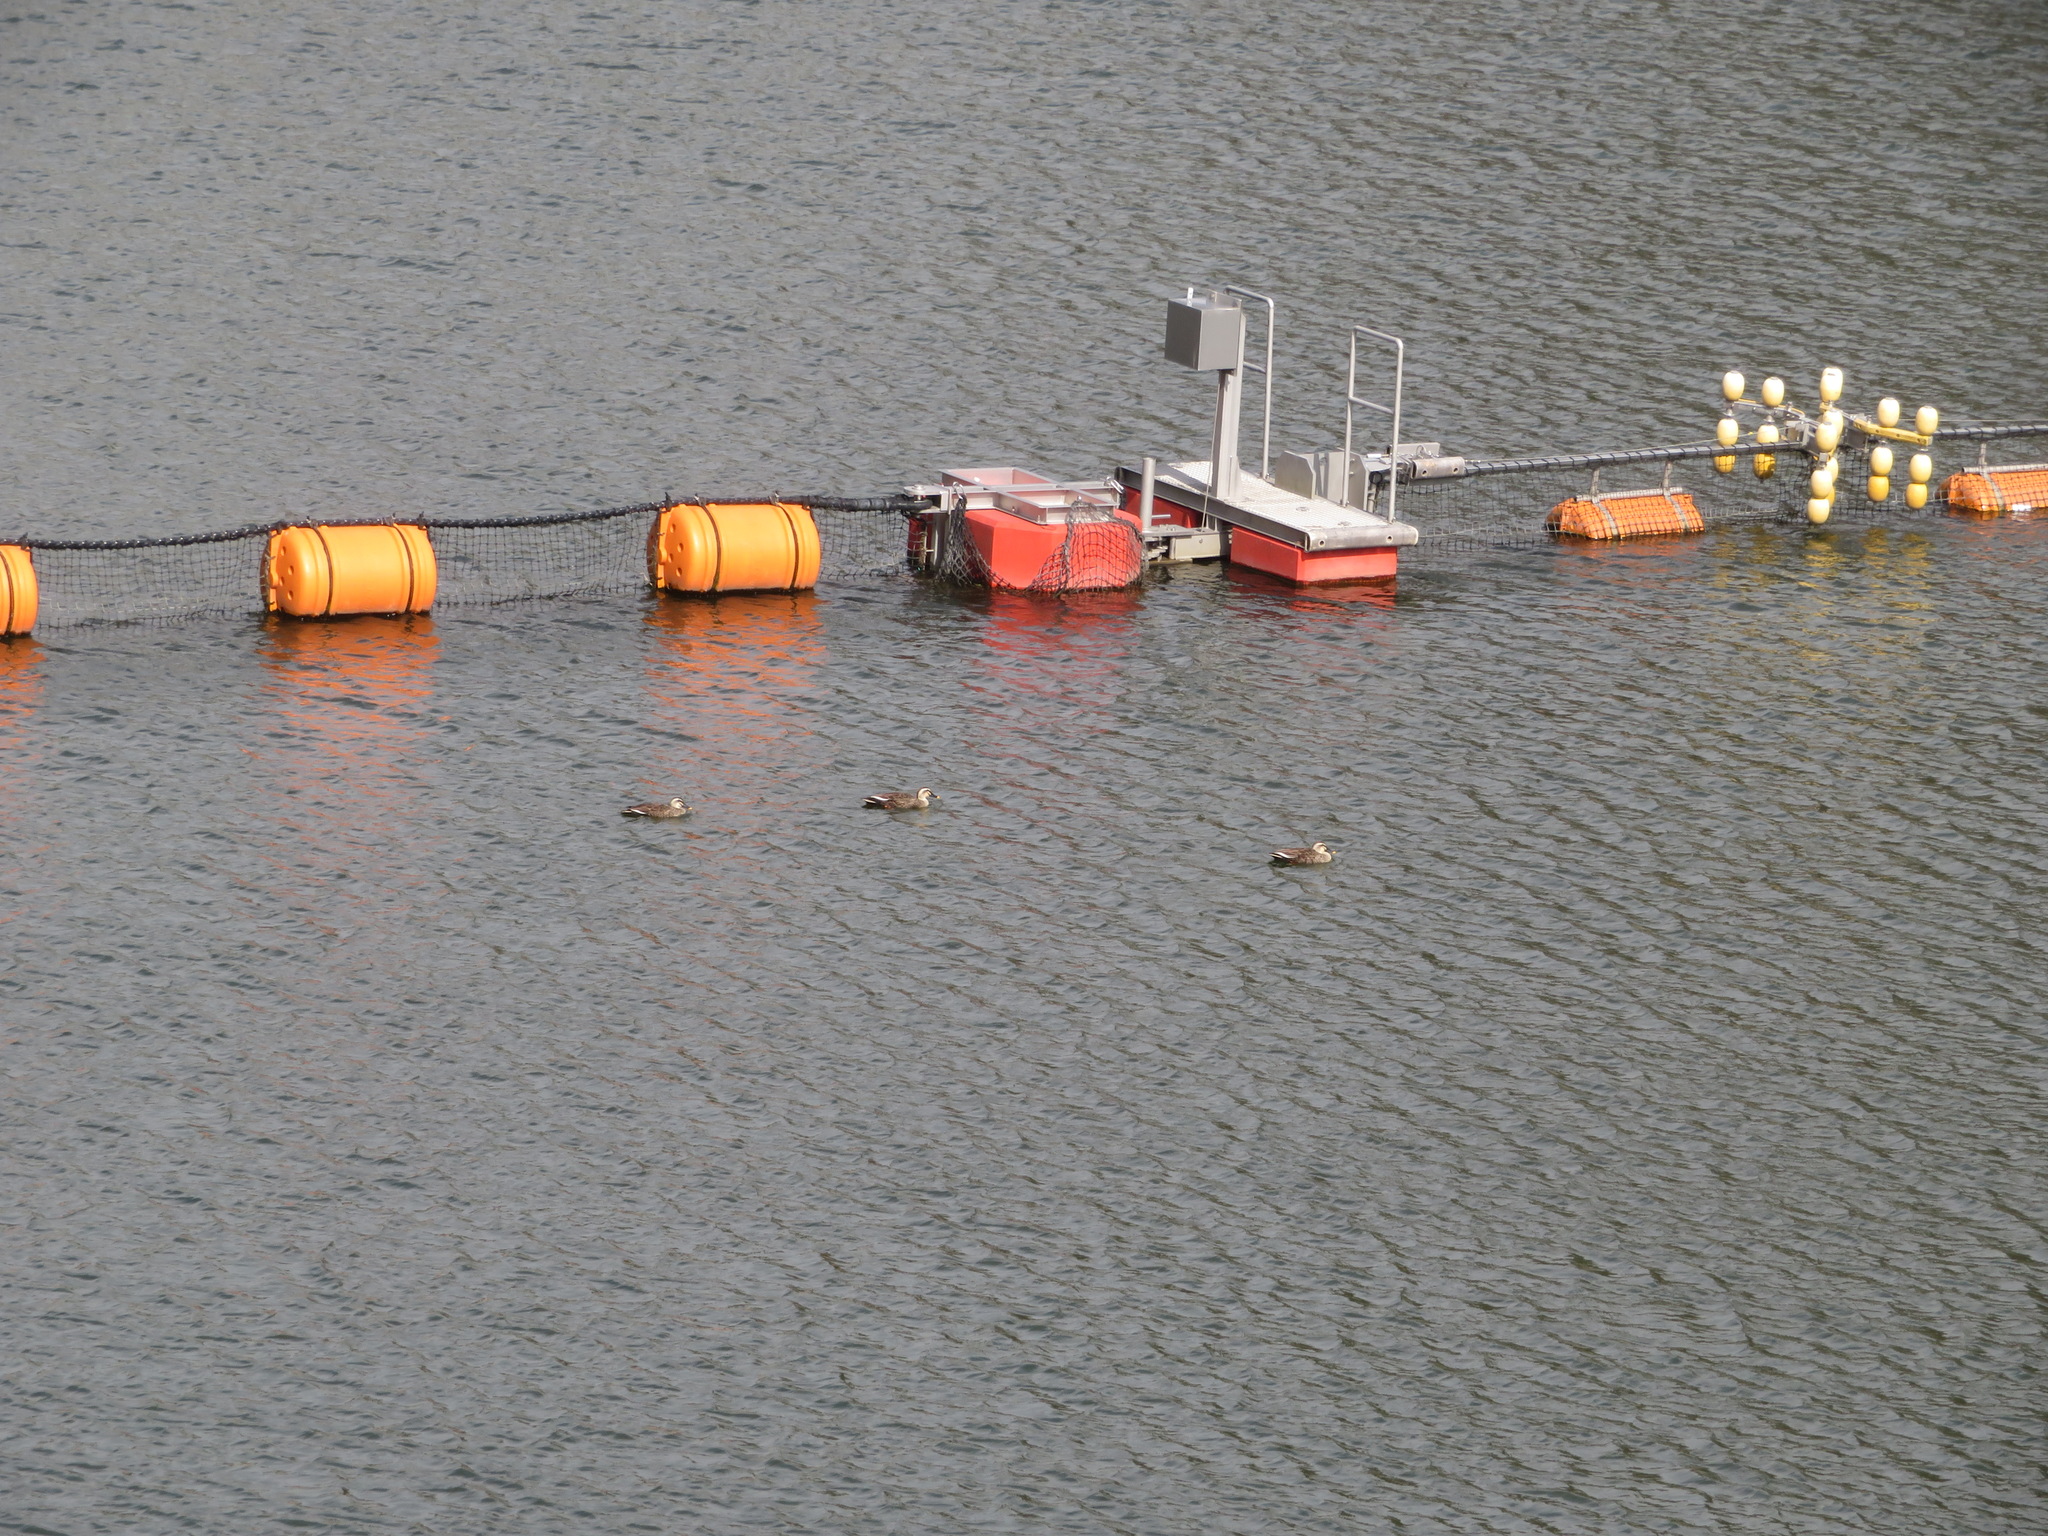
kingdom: Animalia
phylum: Chordata
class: Aves
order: Anseriformes
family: Anatidae
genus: Anas
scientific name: Anas zonorhyncha
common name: Eastern spot-billed duck
